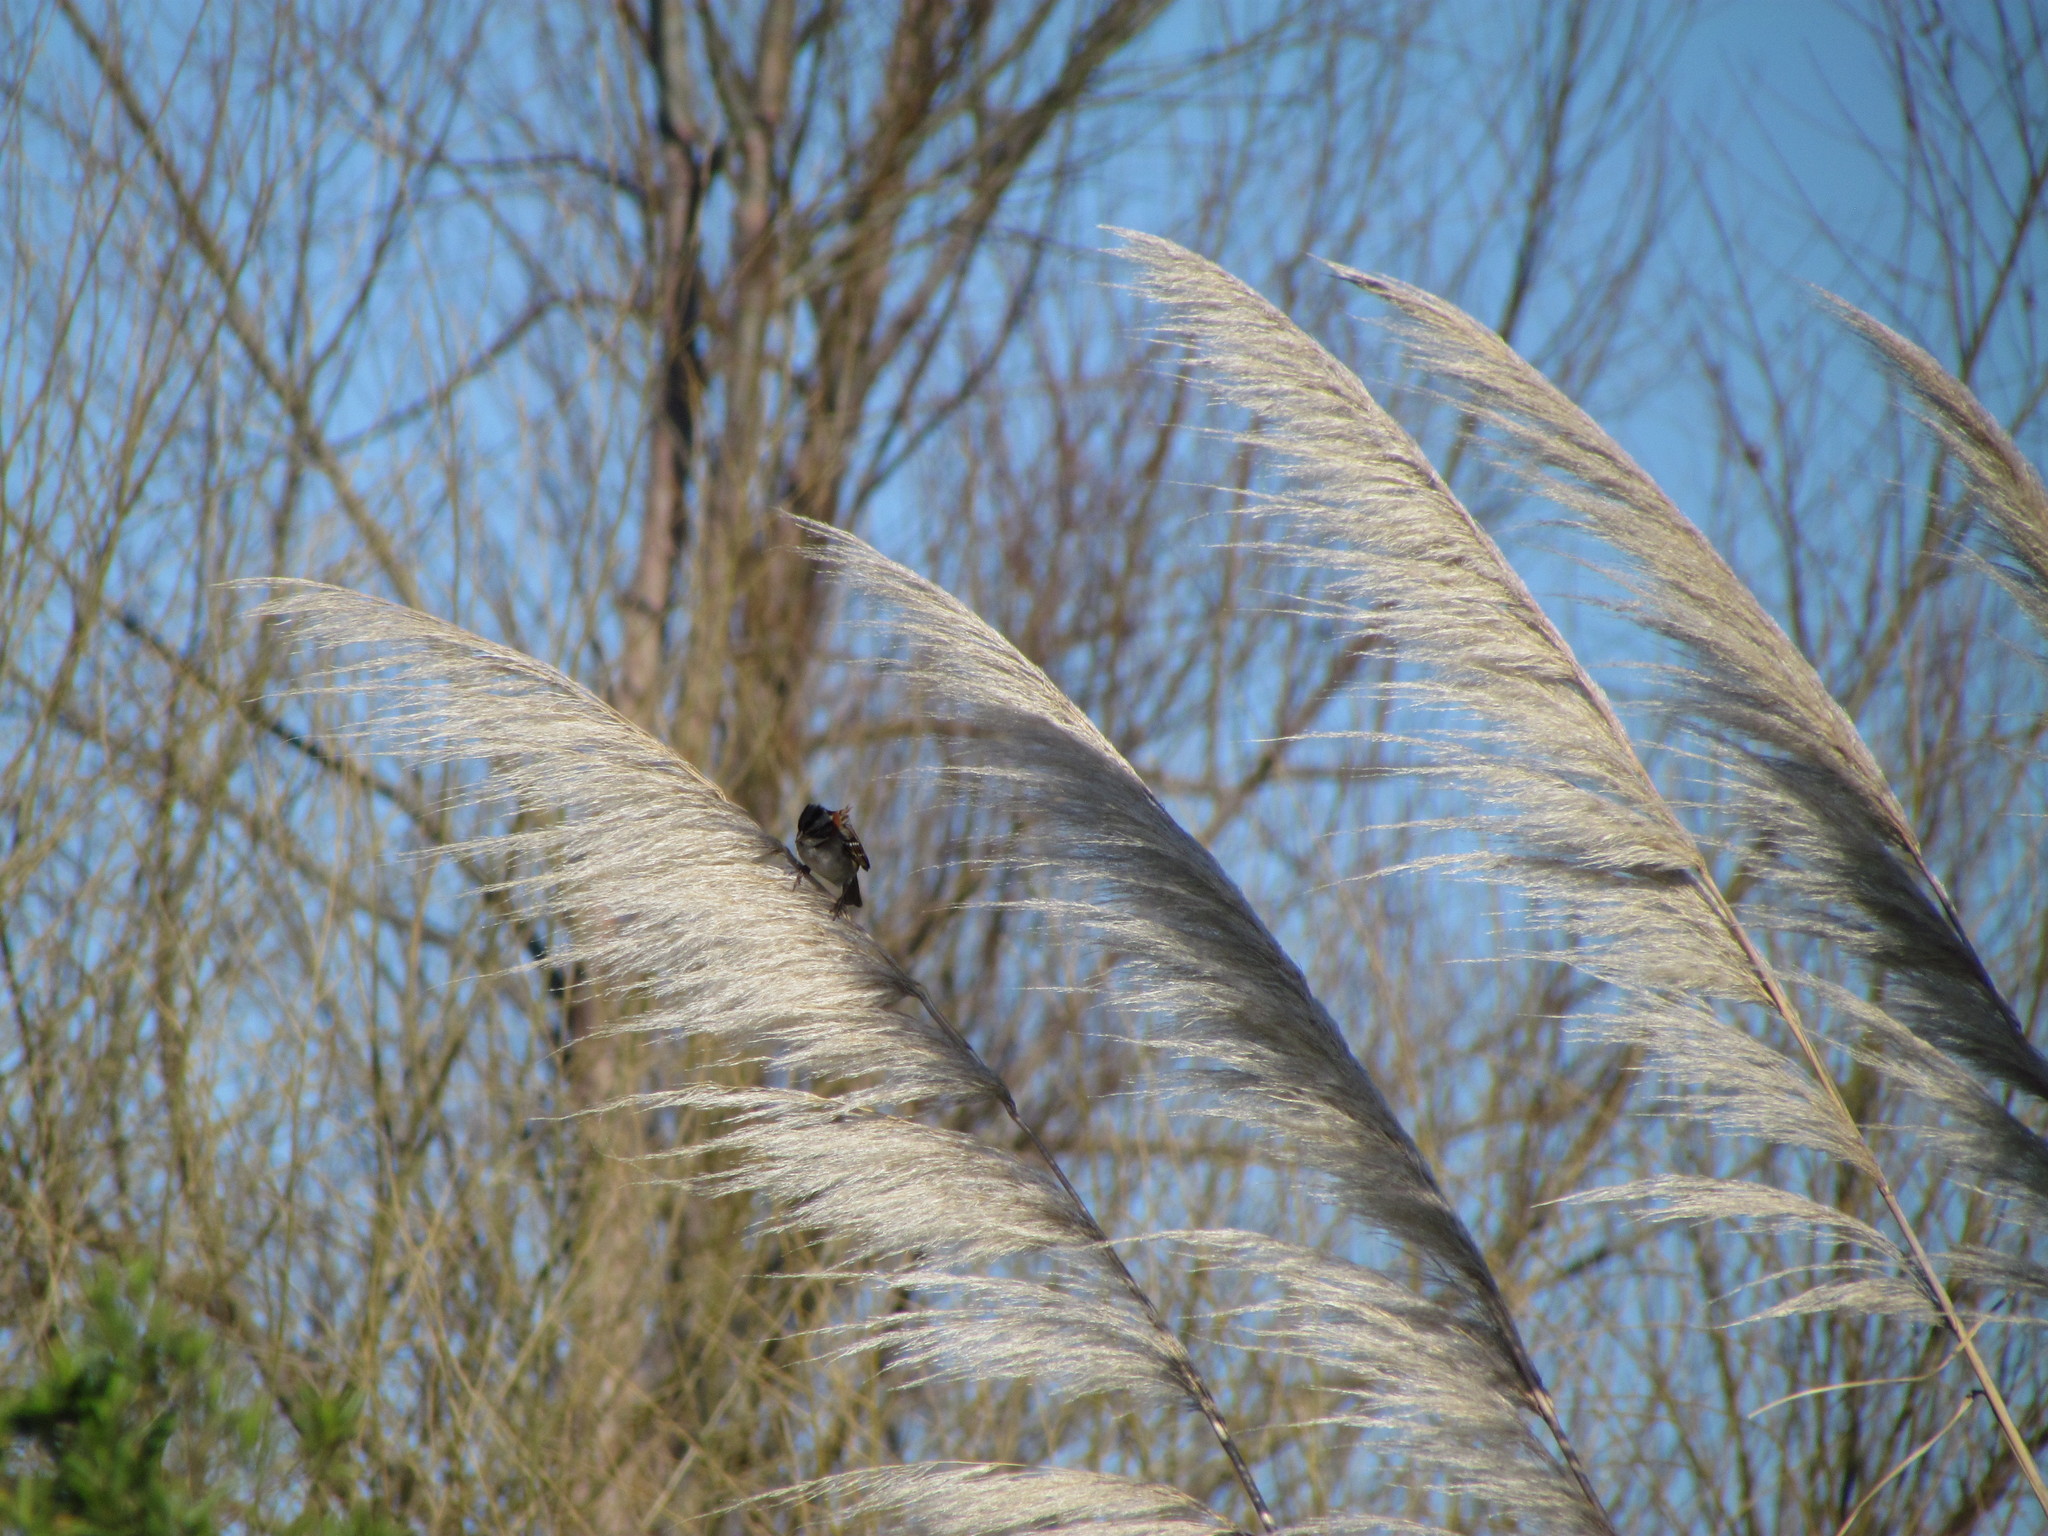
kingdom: Animalia
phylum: Chordata
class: Aves
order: Passeriformes
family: Passerellidae
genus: Zonotrichia
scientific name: Zonotrichia capensis
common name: Rufous-collared sparrow
